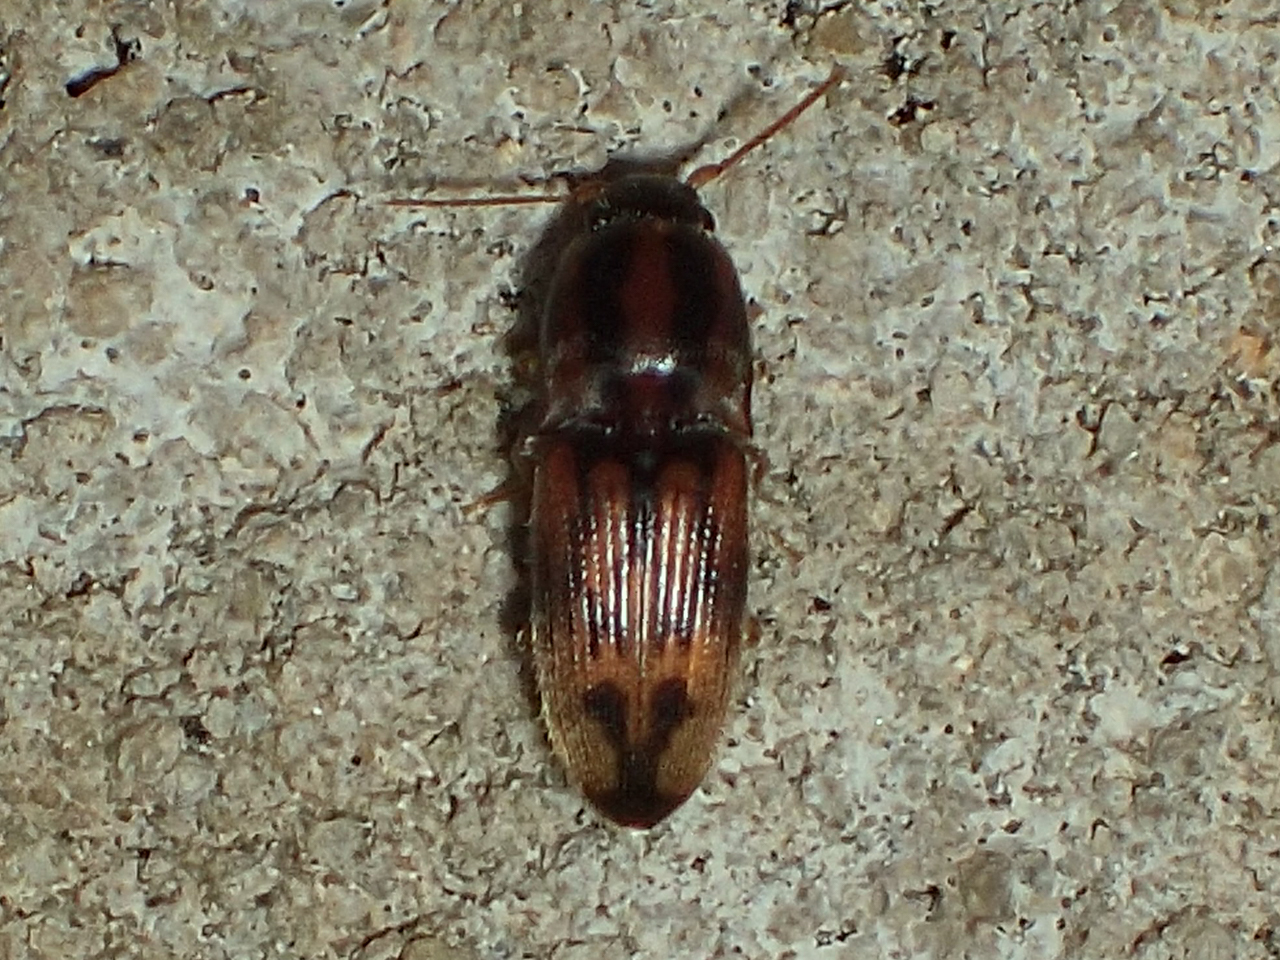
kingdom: Animalia
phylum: Arthropoda
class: Insecta
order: Coleoptera
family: Elateridae
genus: Monocrepidius
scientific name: Monocrepidius bellus
